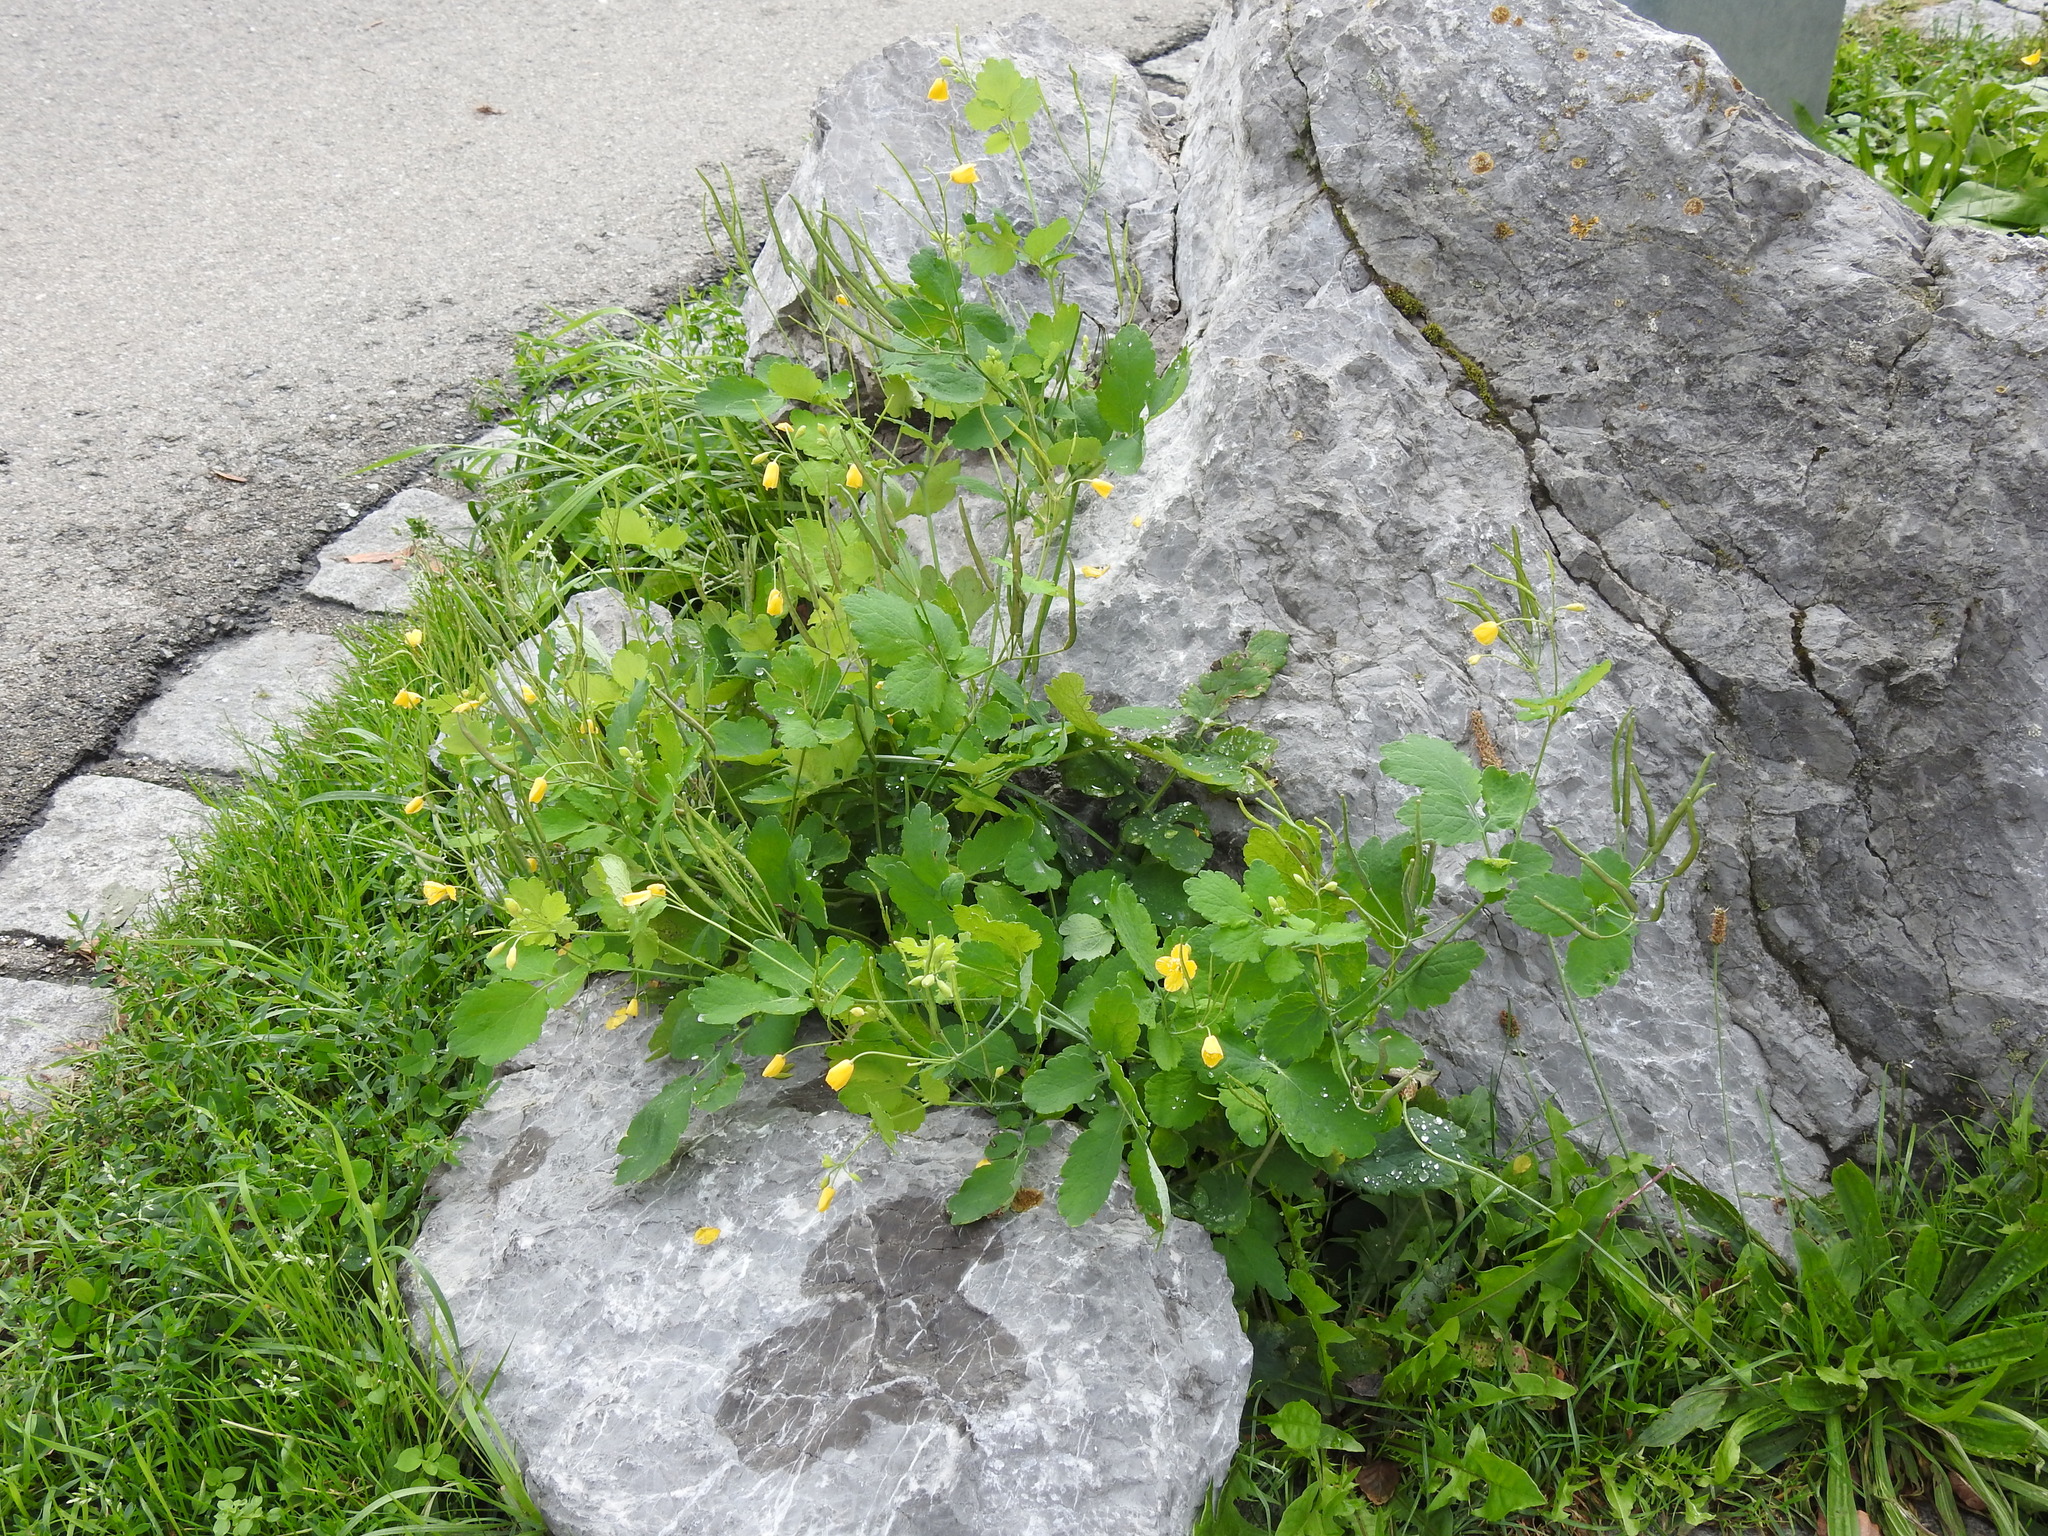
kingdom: Plantae
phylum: Tracheophyta
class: Magnoliopsida
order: Ranunculales
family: Papaveraceae
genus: Chelidonium
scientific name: Chelidonium majus
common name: Greater celandine
